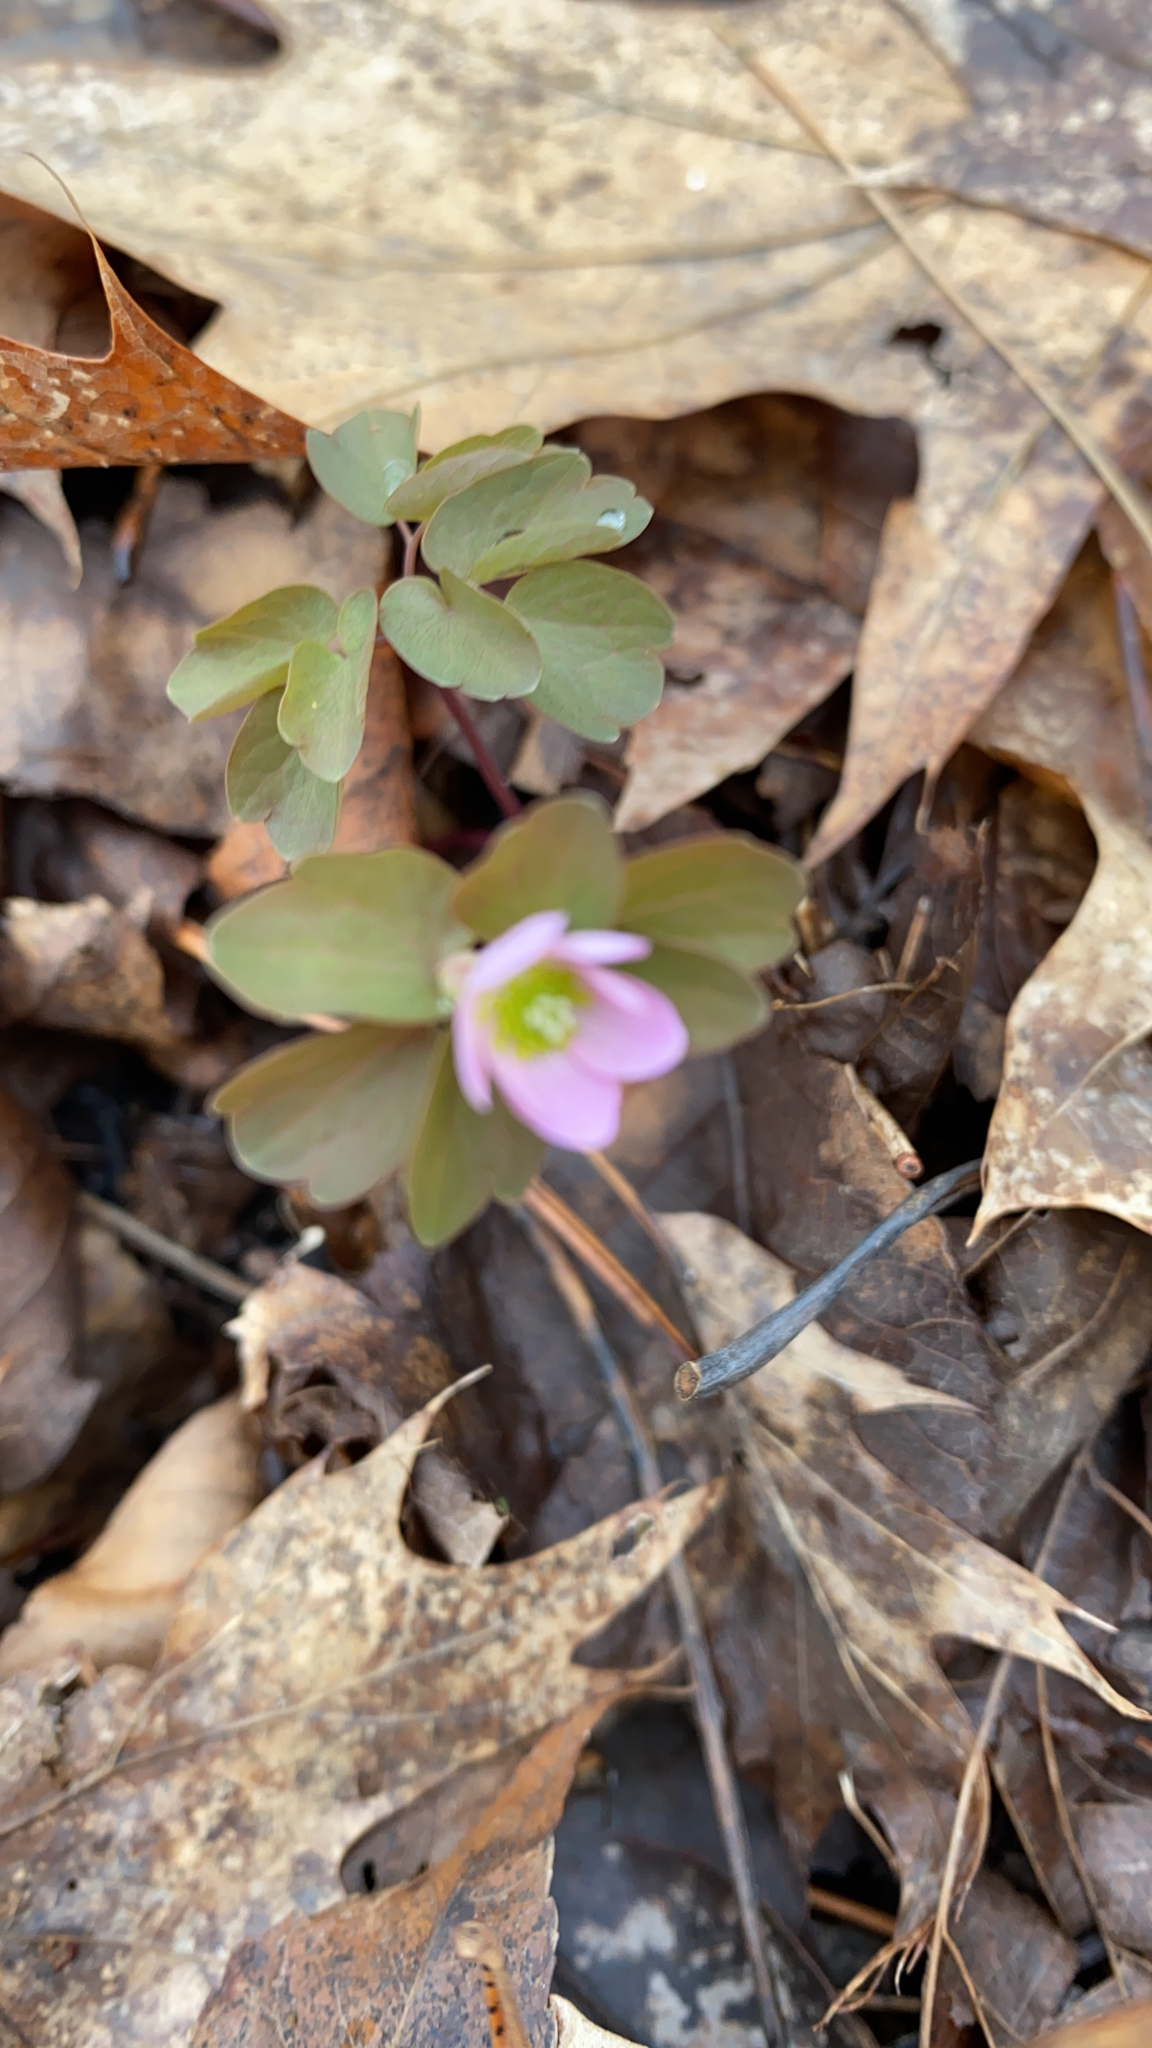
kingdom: Plantae
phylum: Tracheophyta
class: Magnoliopsida
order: Ranunculales
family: Ranunculaceae
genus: Thalictrum
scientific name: Thalictrum thalictroides
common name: Rue-anemone
